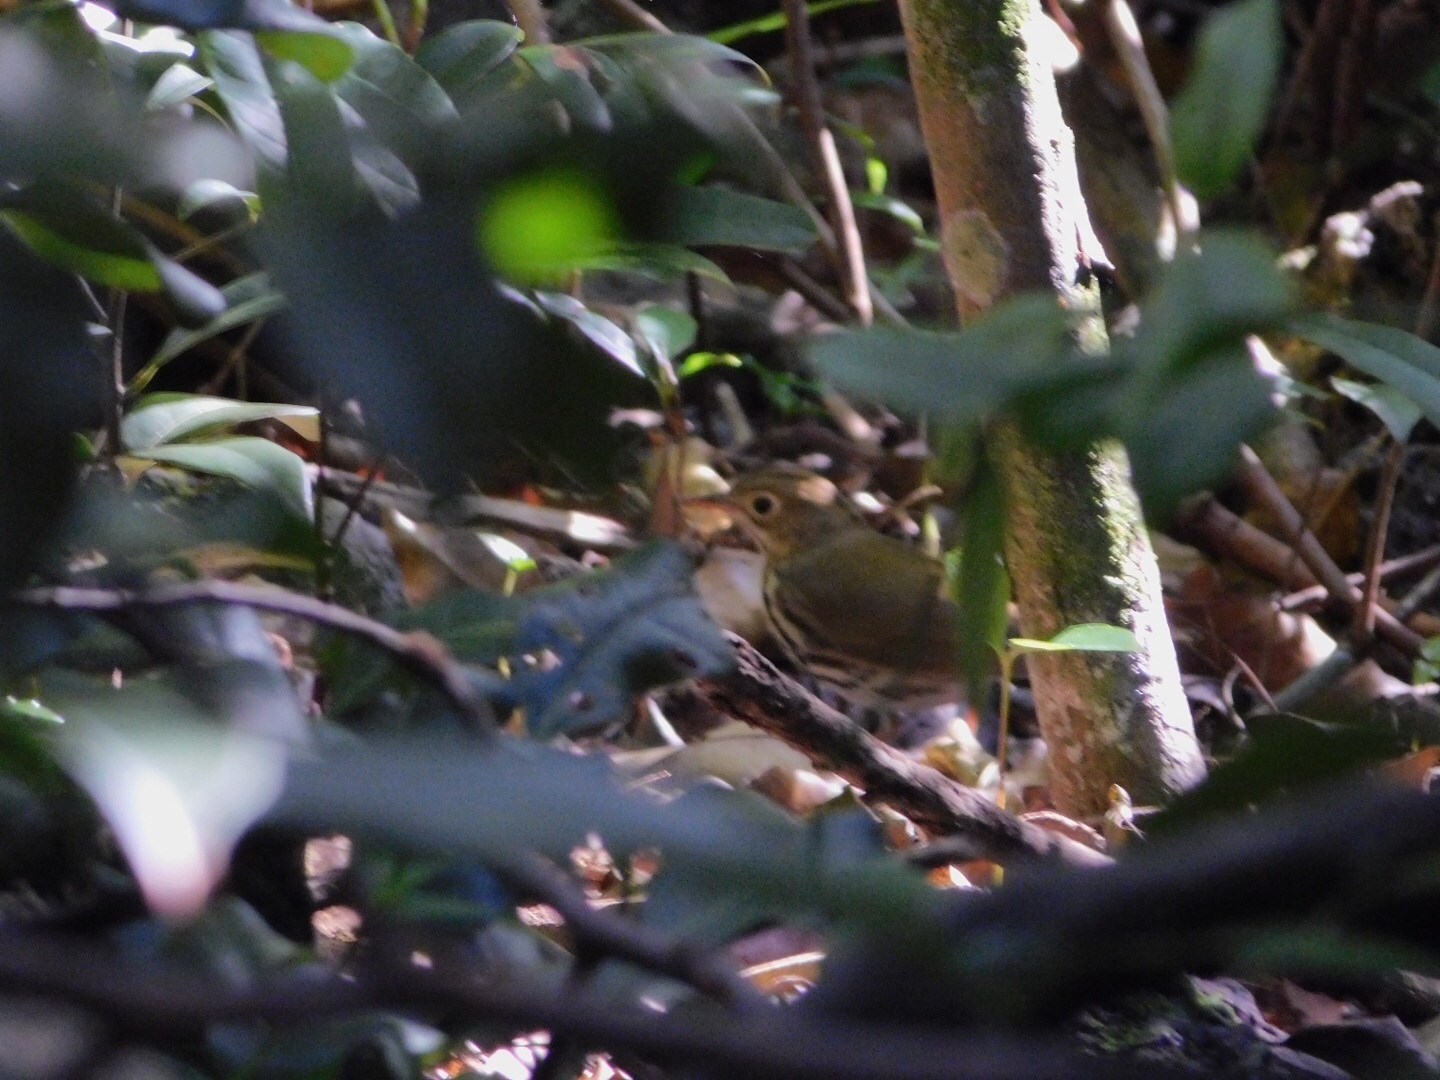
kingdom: Animalia
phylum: Chordata
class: Aves
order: Passeriformes
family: Parulidae
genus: Seiurus
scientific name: Seiurus aurocapilla
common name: Ovenbird
